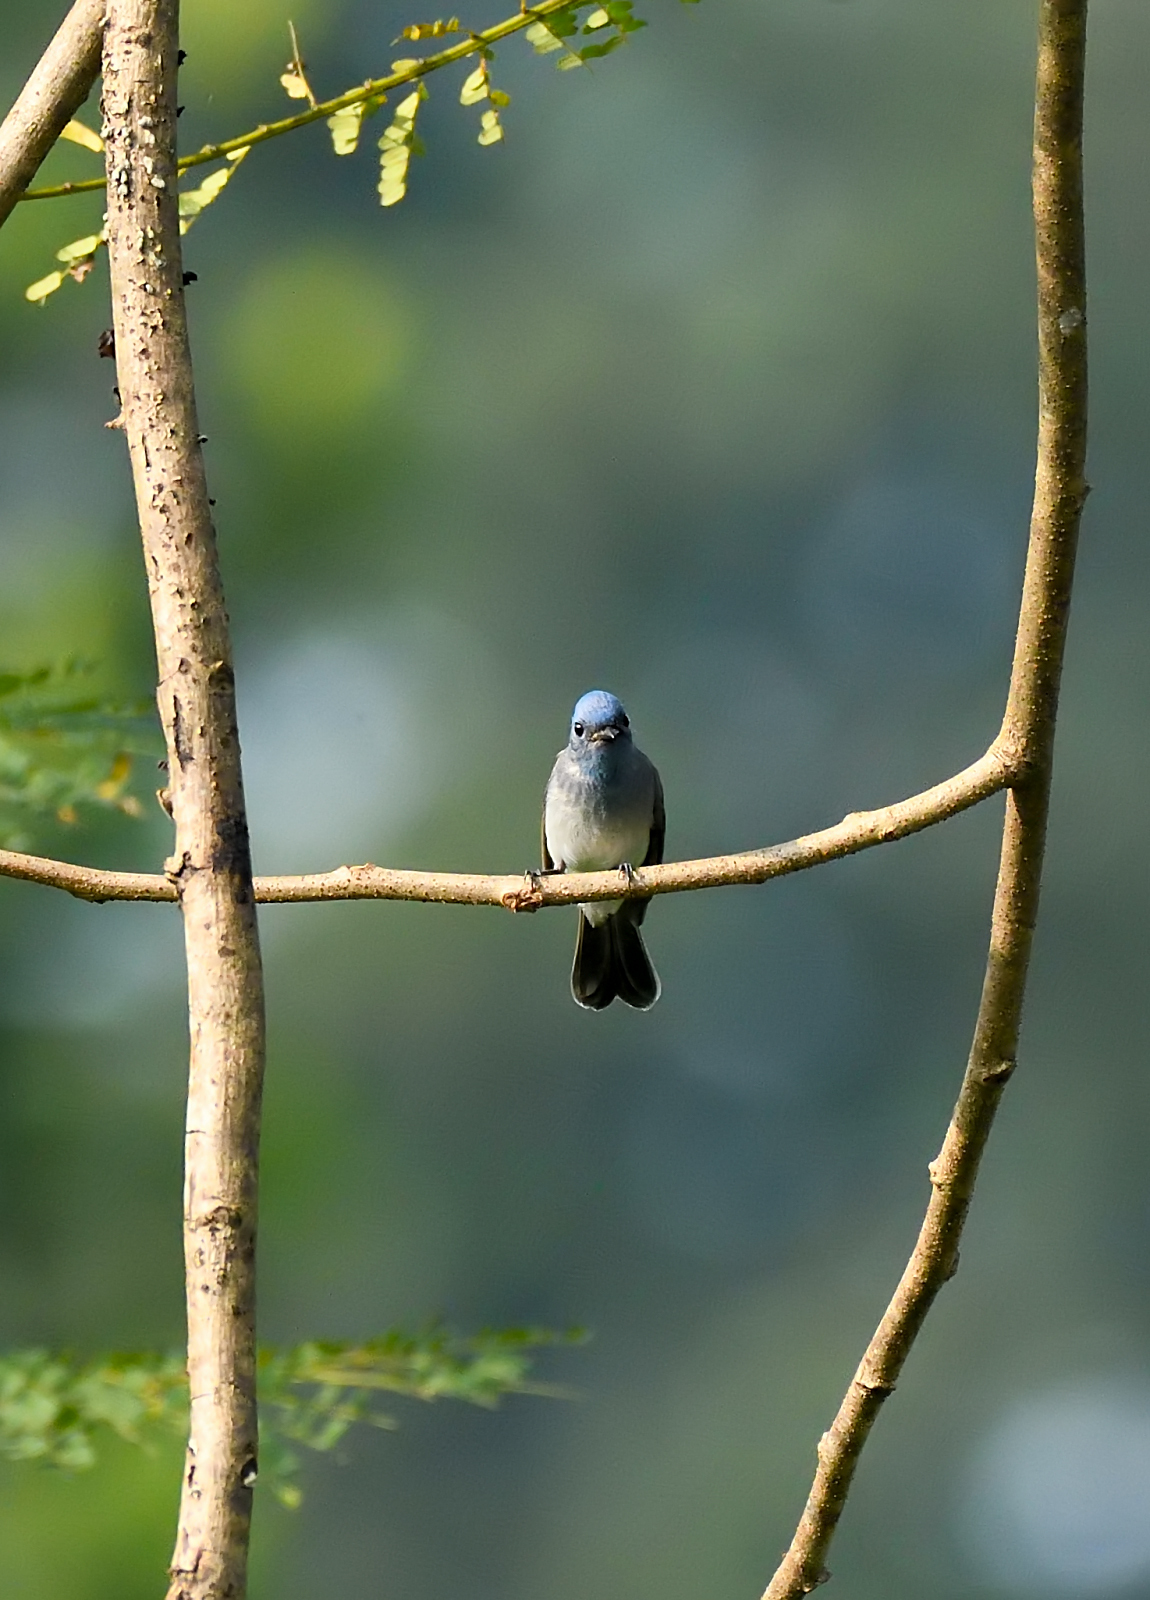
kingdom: Animalia
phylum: Chordata
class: Aves
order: Passeriformes
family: Monarchidae
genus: Hypothymis
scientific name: Hypothymis azurea
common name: Black-naped monarch
